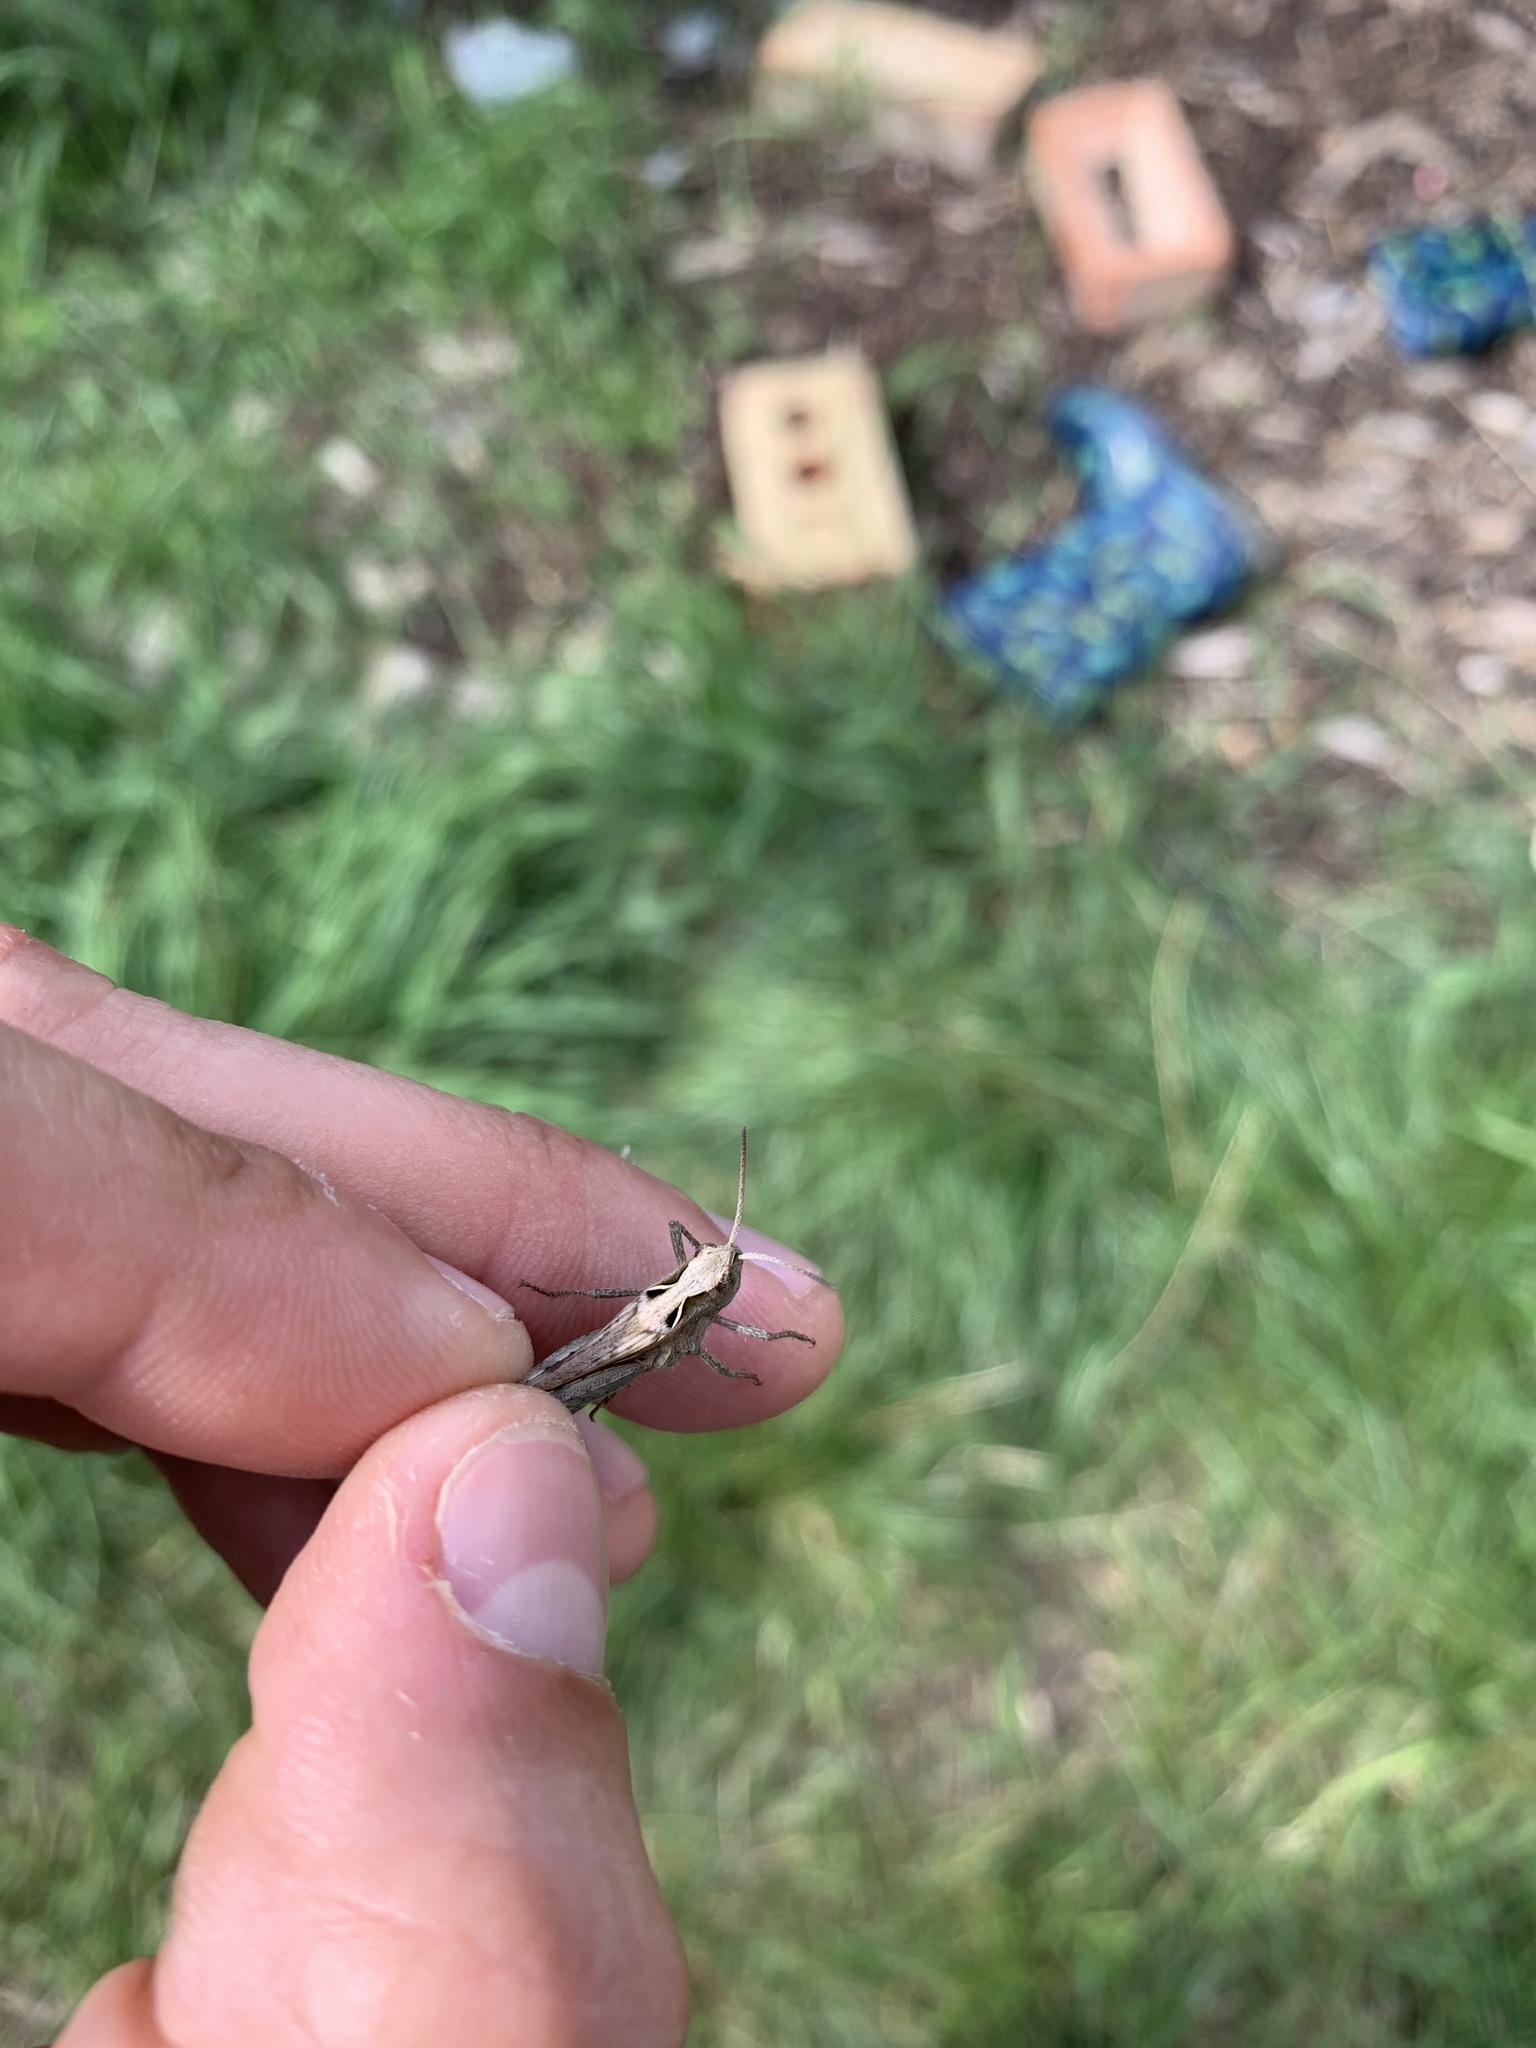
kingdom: Animalia
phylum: Arthropoda
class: Insecta
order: Orthoptera
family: Acrididae
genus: Chorthippus
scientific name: Chorthippus brunneus
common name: Field grasshopper
